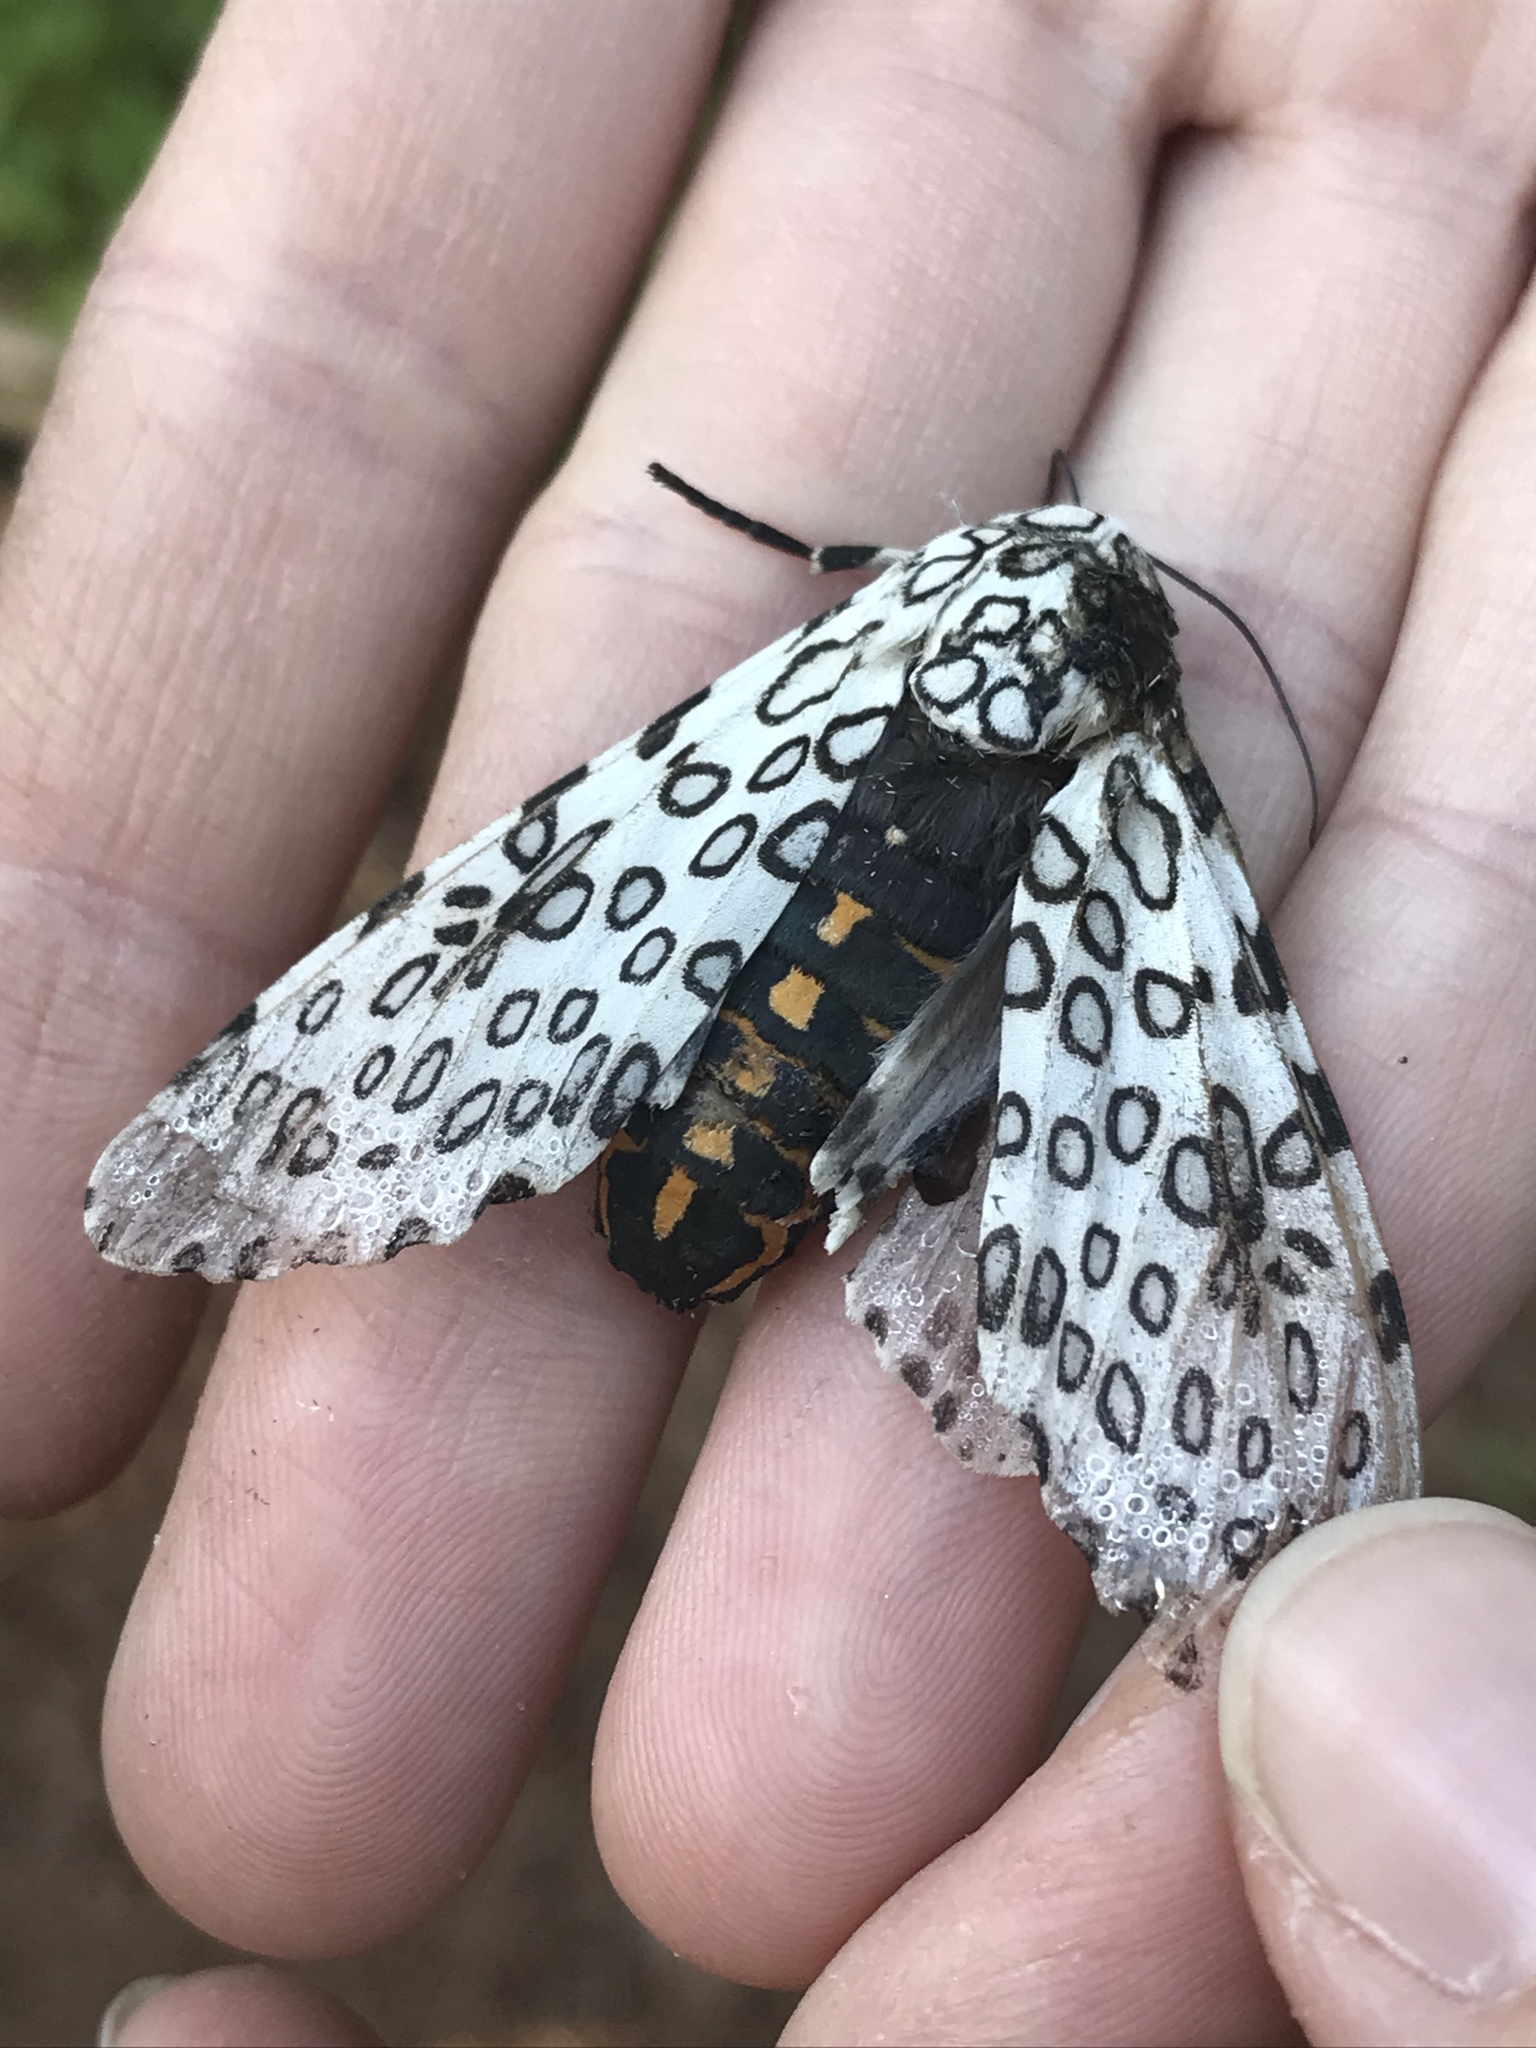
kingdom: Animalia
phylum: Arthropoda
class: Insecta
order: Lepidoptera
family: Erebidae
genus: Hypercompe
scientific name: Hypercompe scribonia
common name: Giant leopard moth
